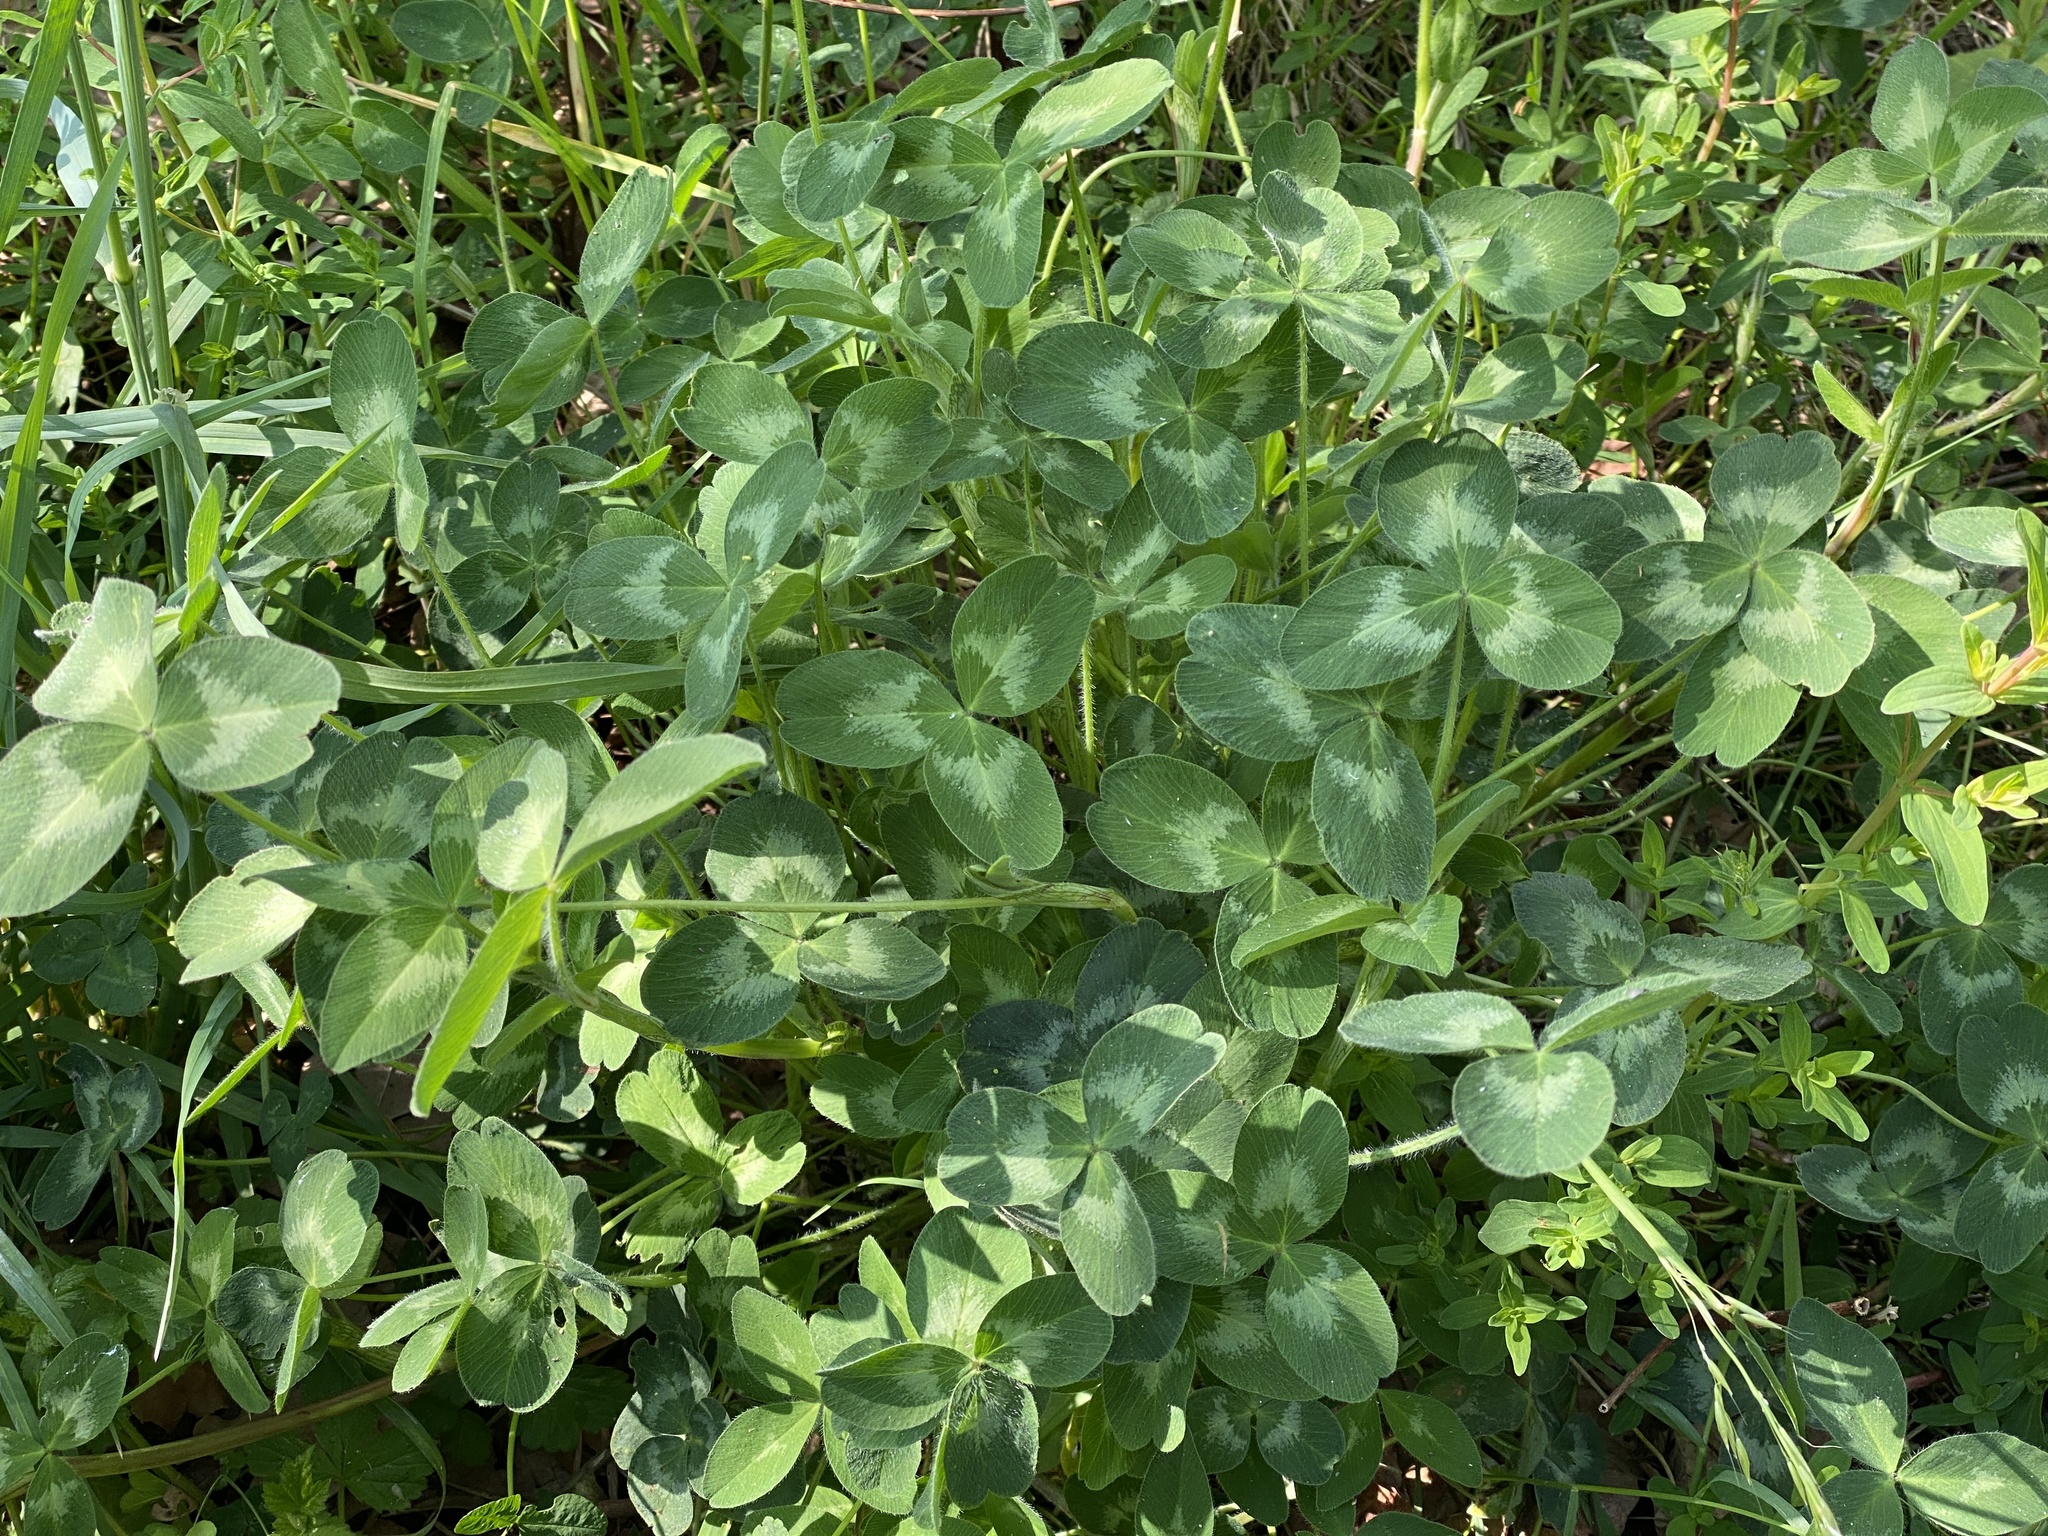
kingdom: Plantae
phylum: Tracheophyta
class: Magnoliopsida
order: Fabales
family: Fabaceae
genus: Trifolium
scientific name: Trifolium pratense
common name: Red clover
